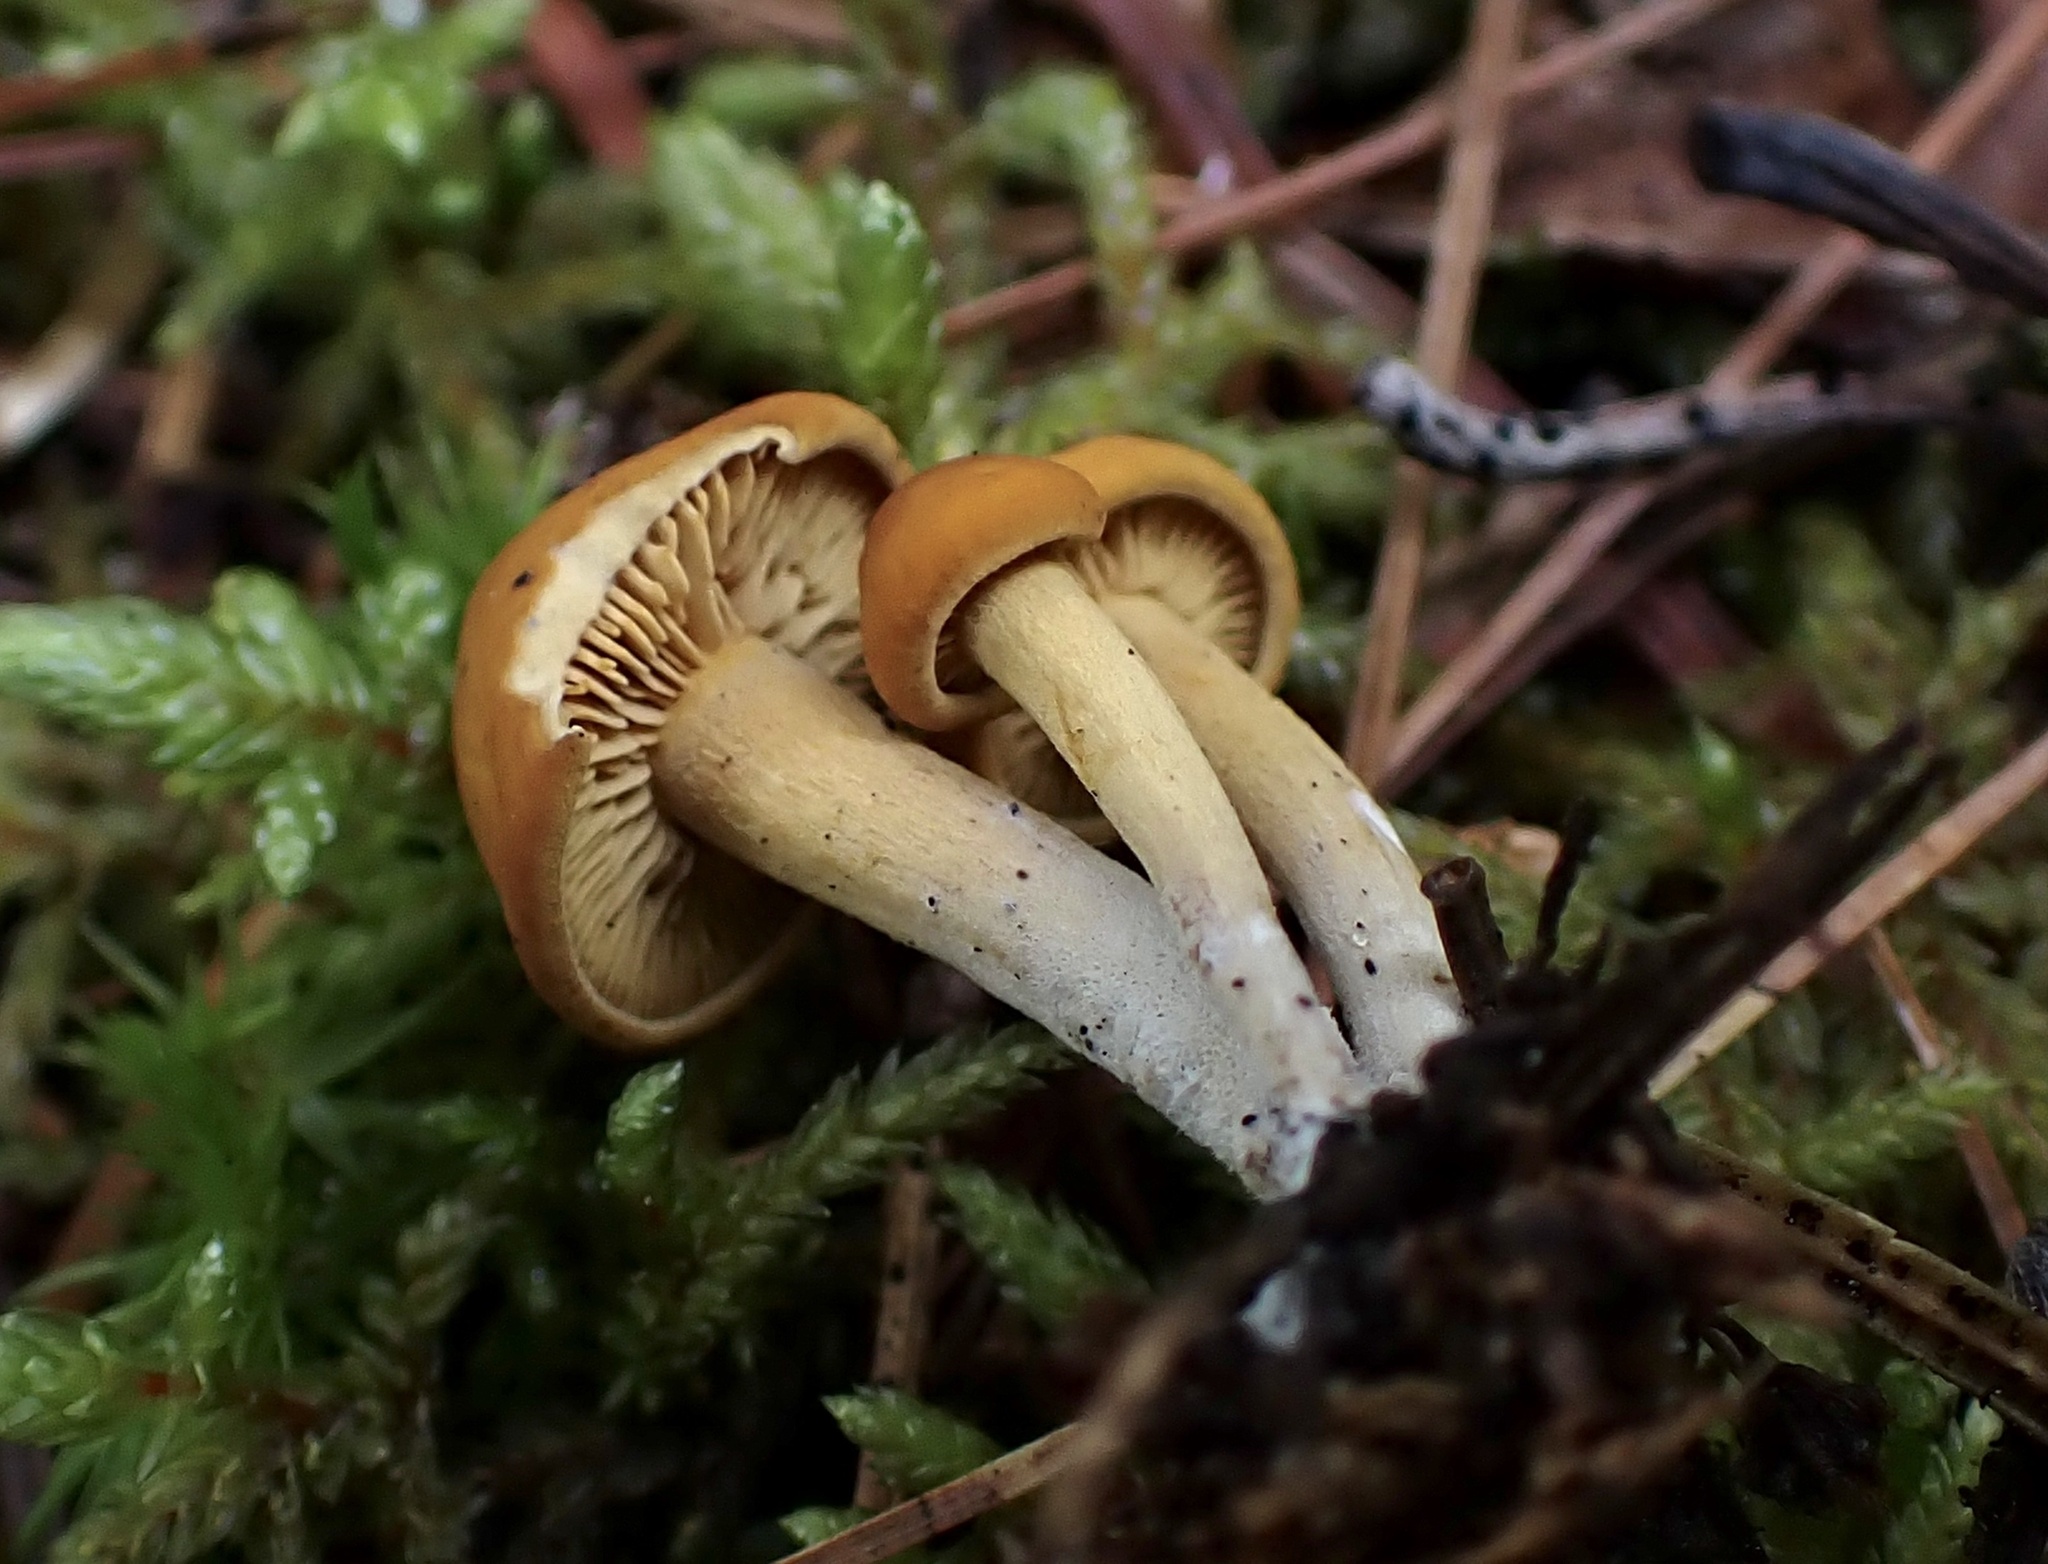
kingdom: Fungi
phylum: Basidiomycota
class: Agaricomycetes
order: Agaricales
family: Lyophyllaceae
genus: Calocybe
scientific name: Calocybe naucoria
